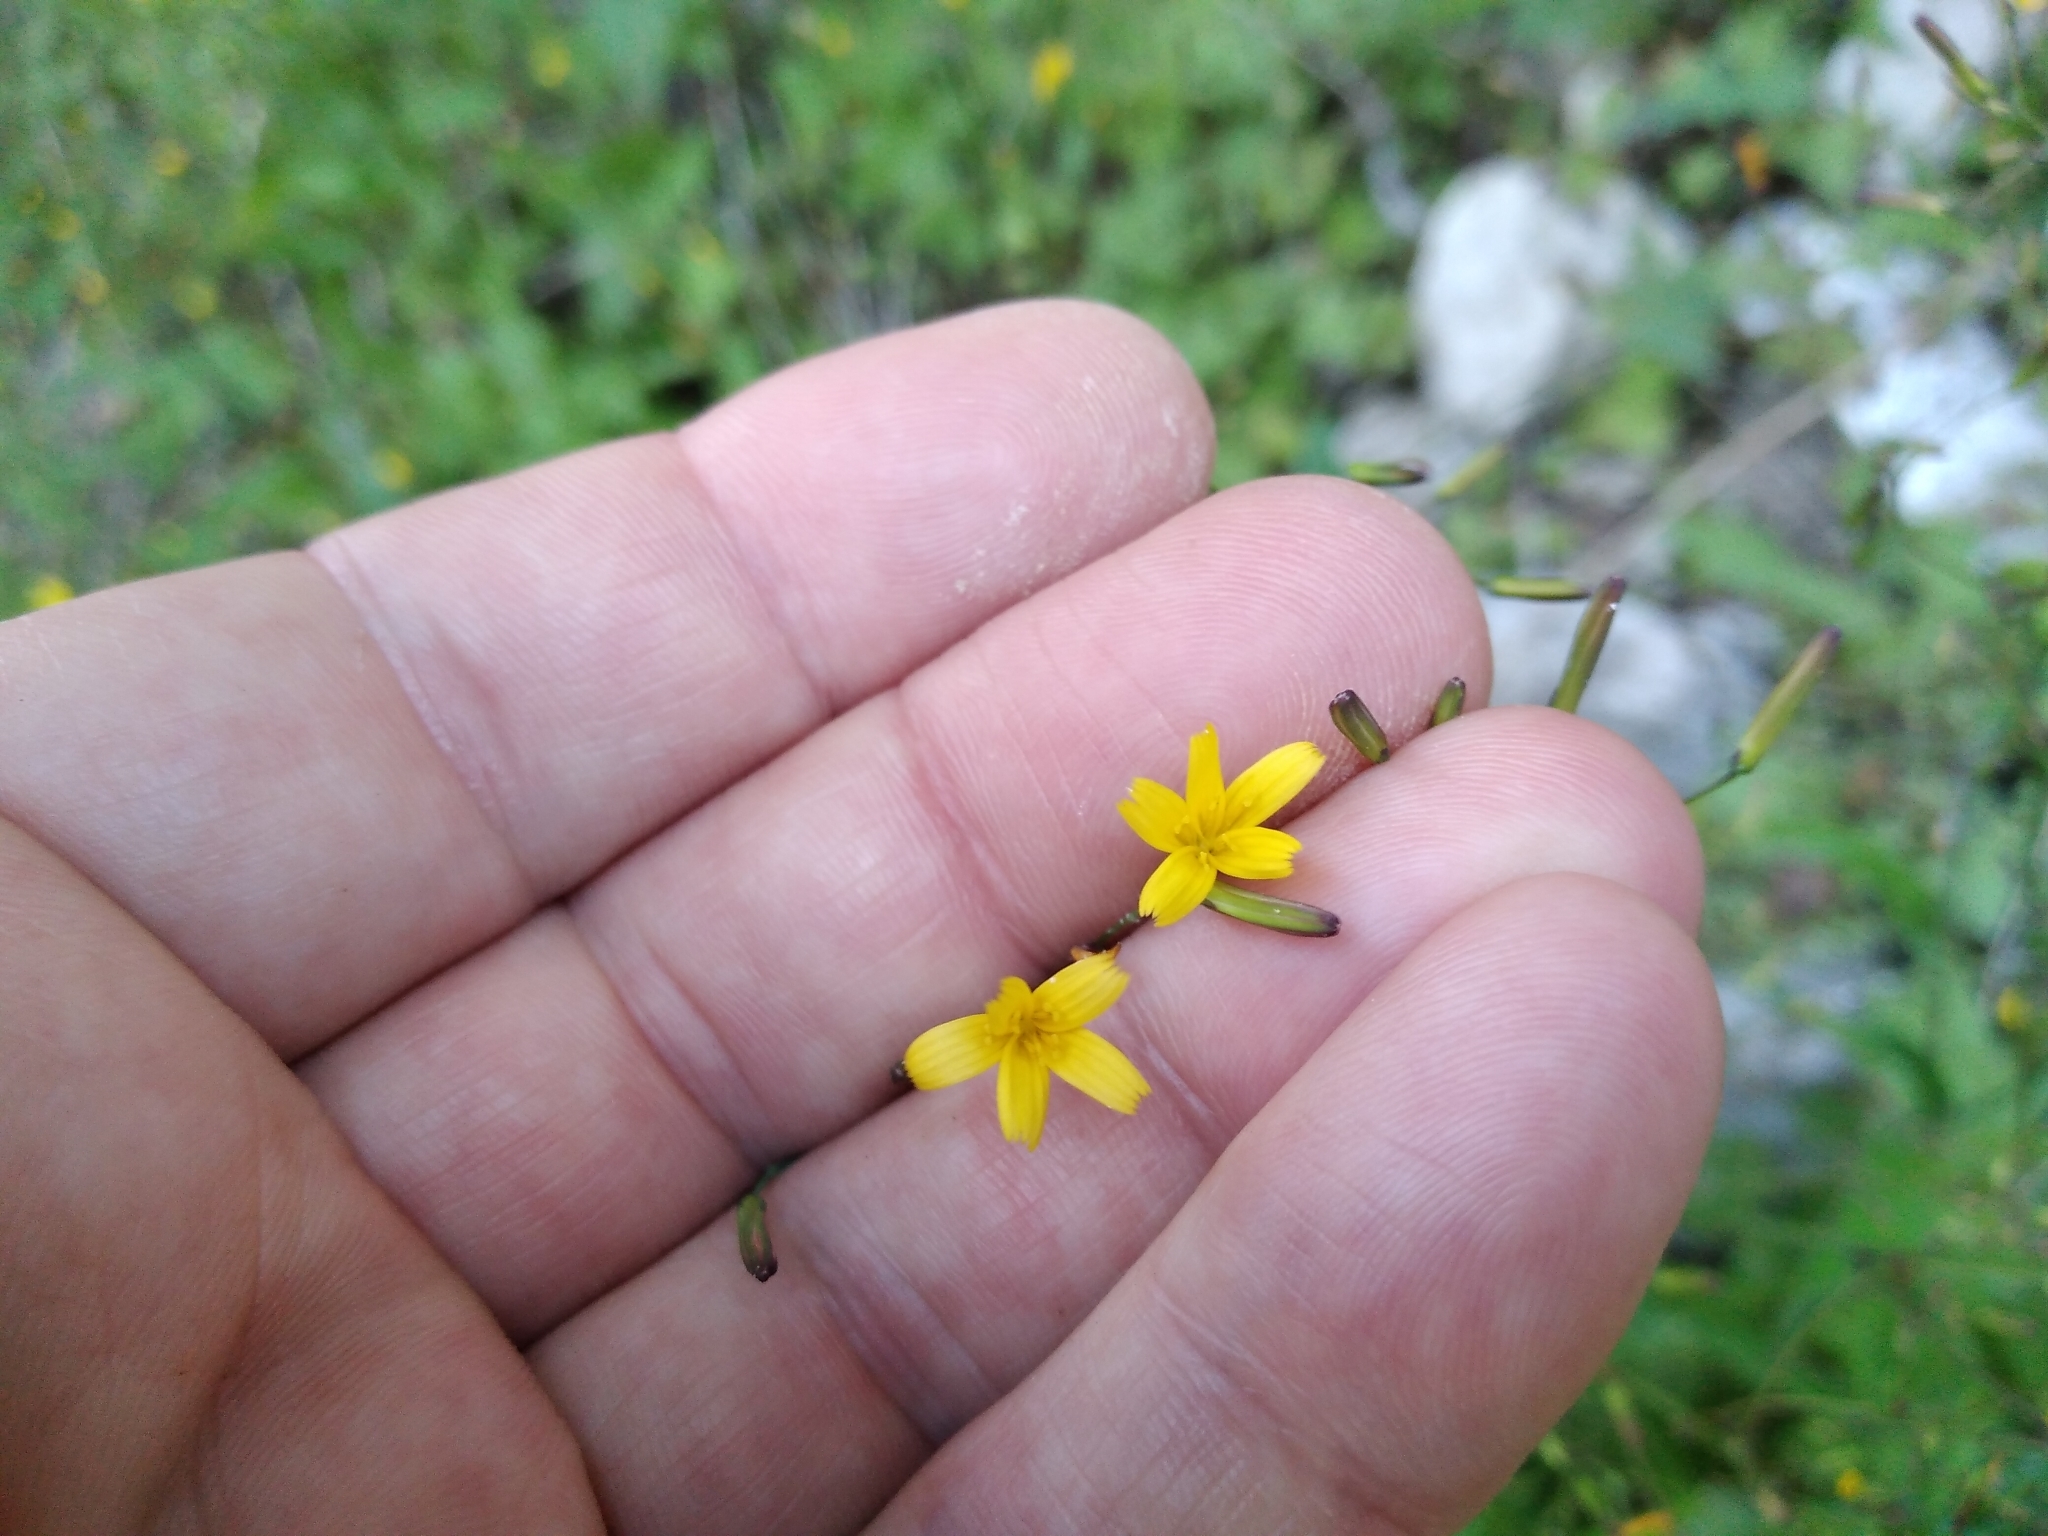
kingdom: Plantae
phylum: Tracheophyta
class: Magnoliopsida
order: Asterales
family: Asteraceae
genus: Mycelis
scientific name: Mycelis muralis
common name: Wall lettuce
